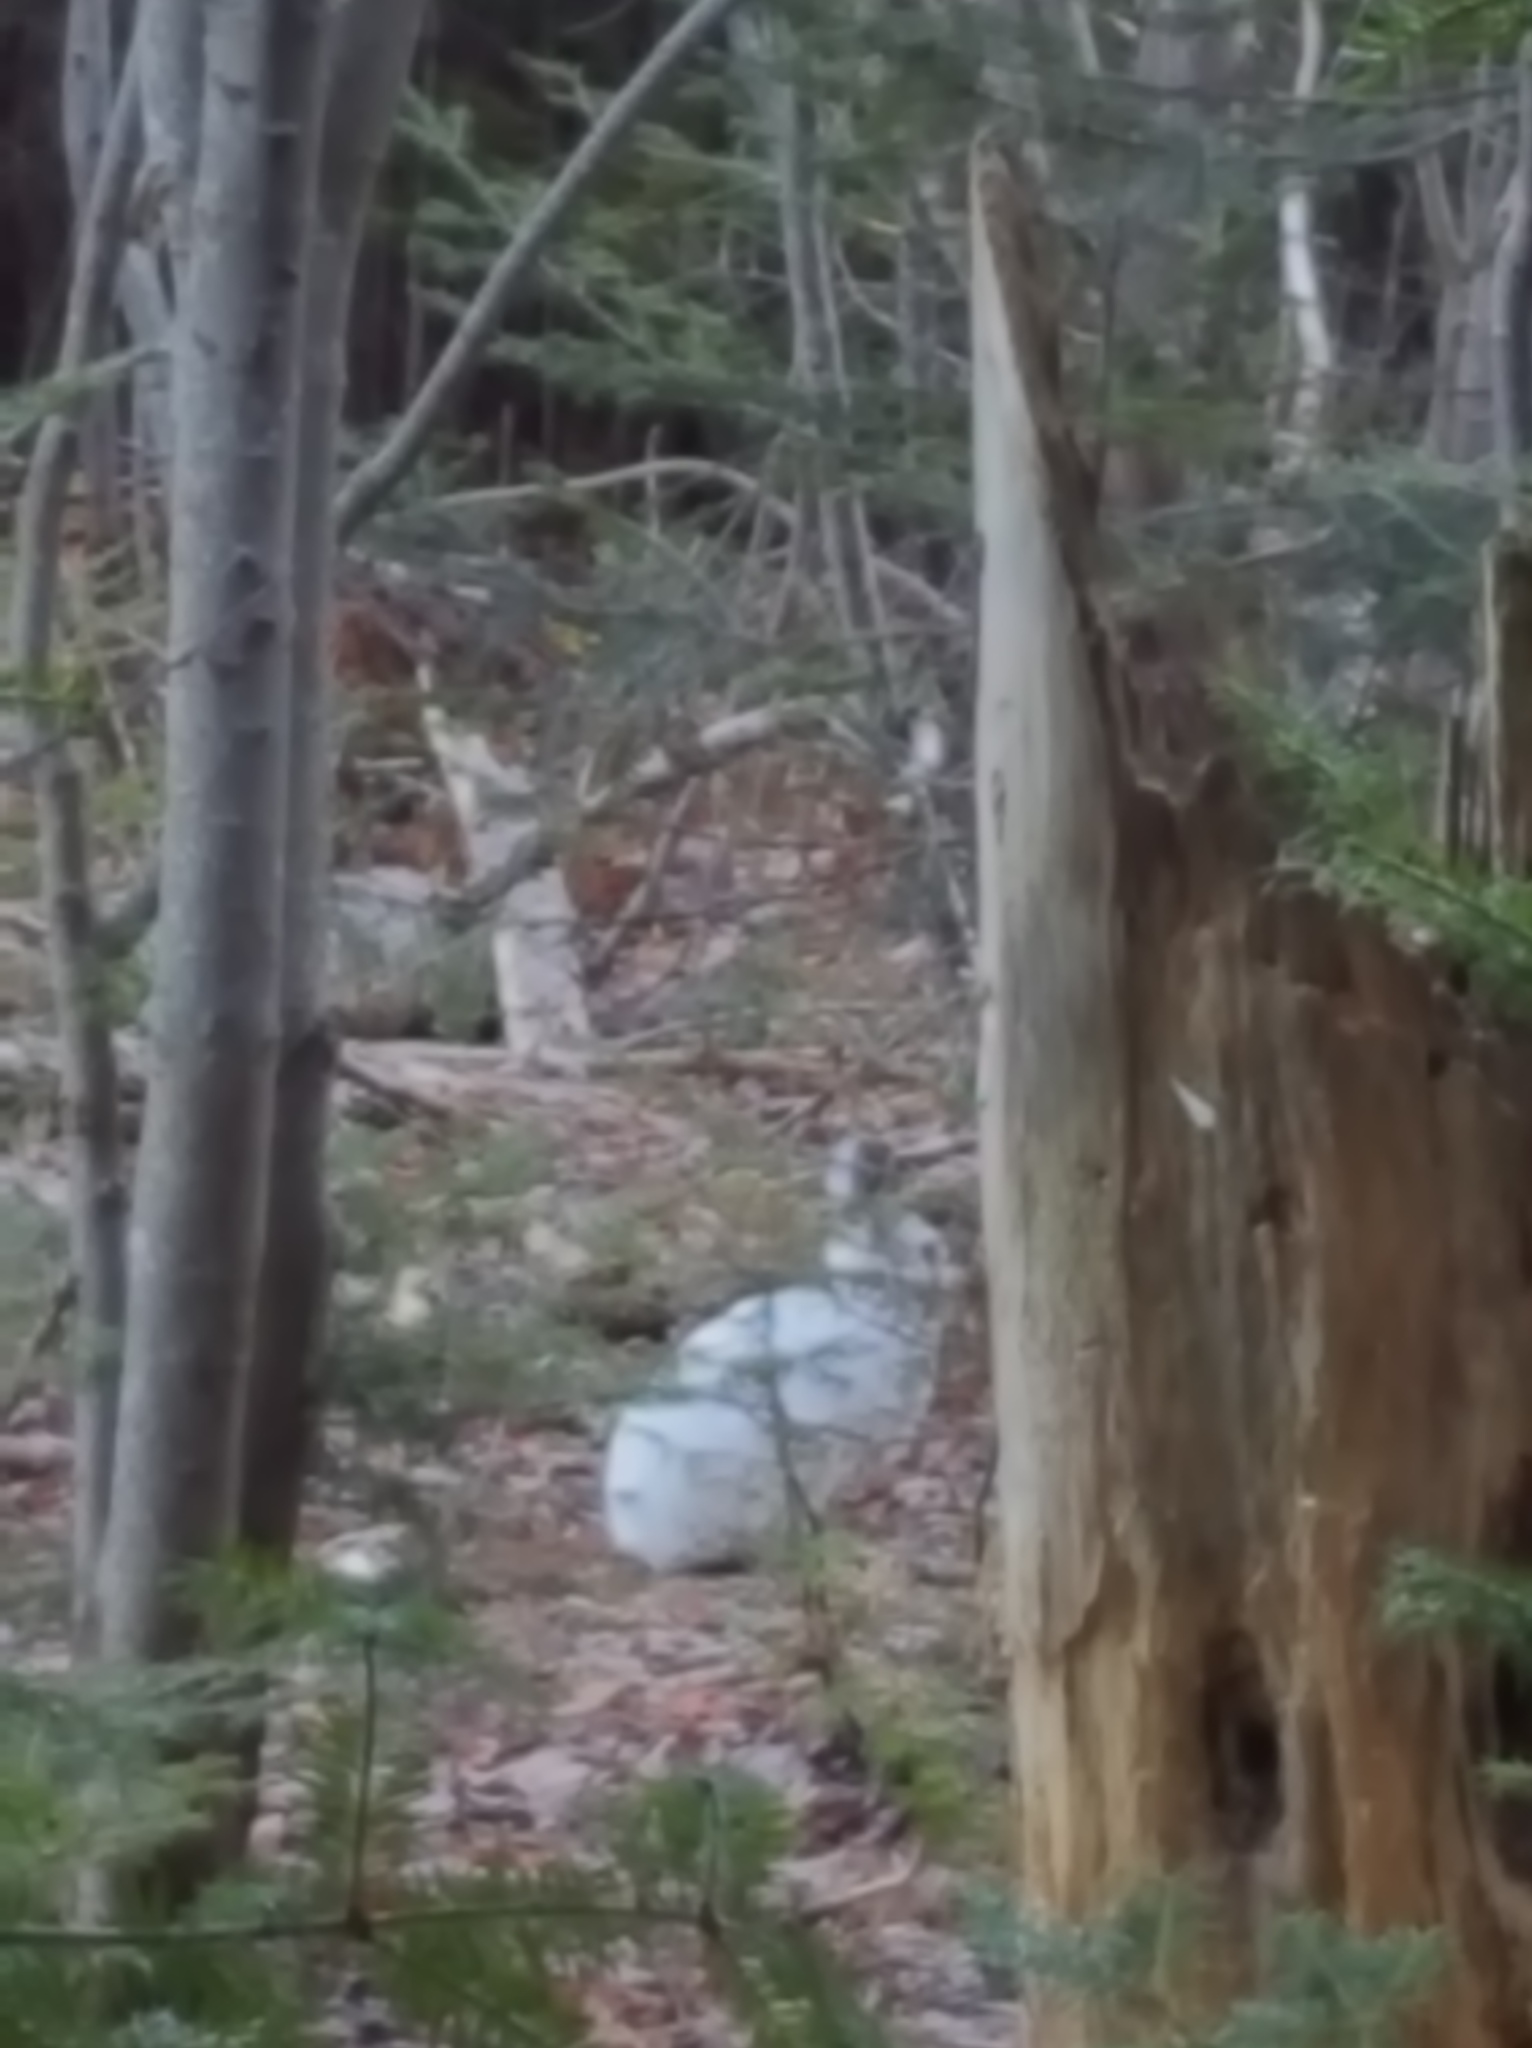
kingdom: Animalia
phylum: Chordata
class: Mammalia
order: Lagomorpha
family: Leporidae
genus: Lepus
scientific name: Lepus americanus
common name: Snowshoe hare
